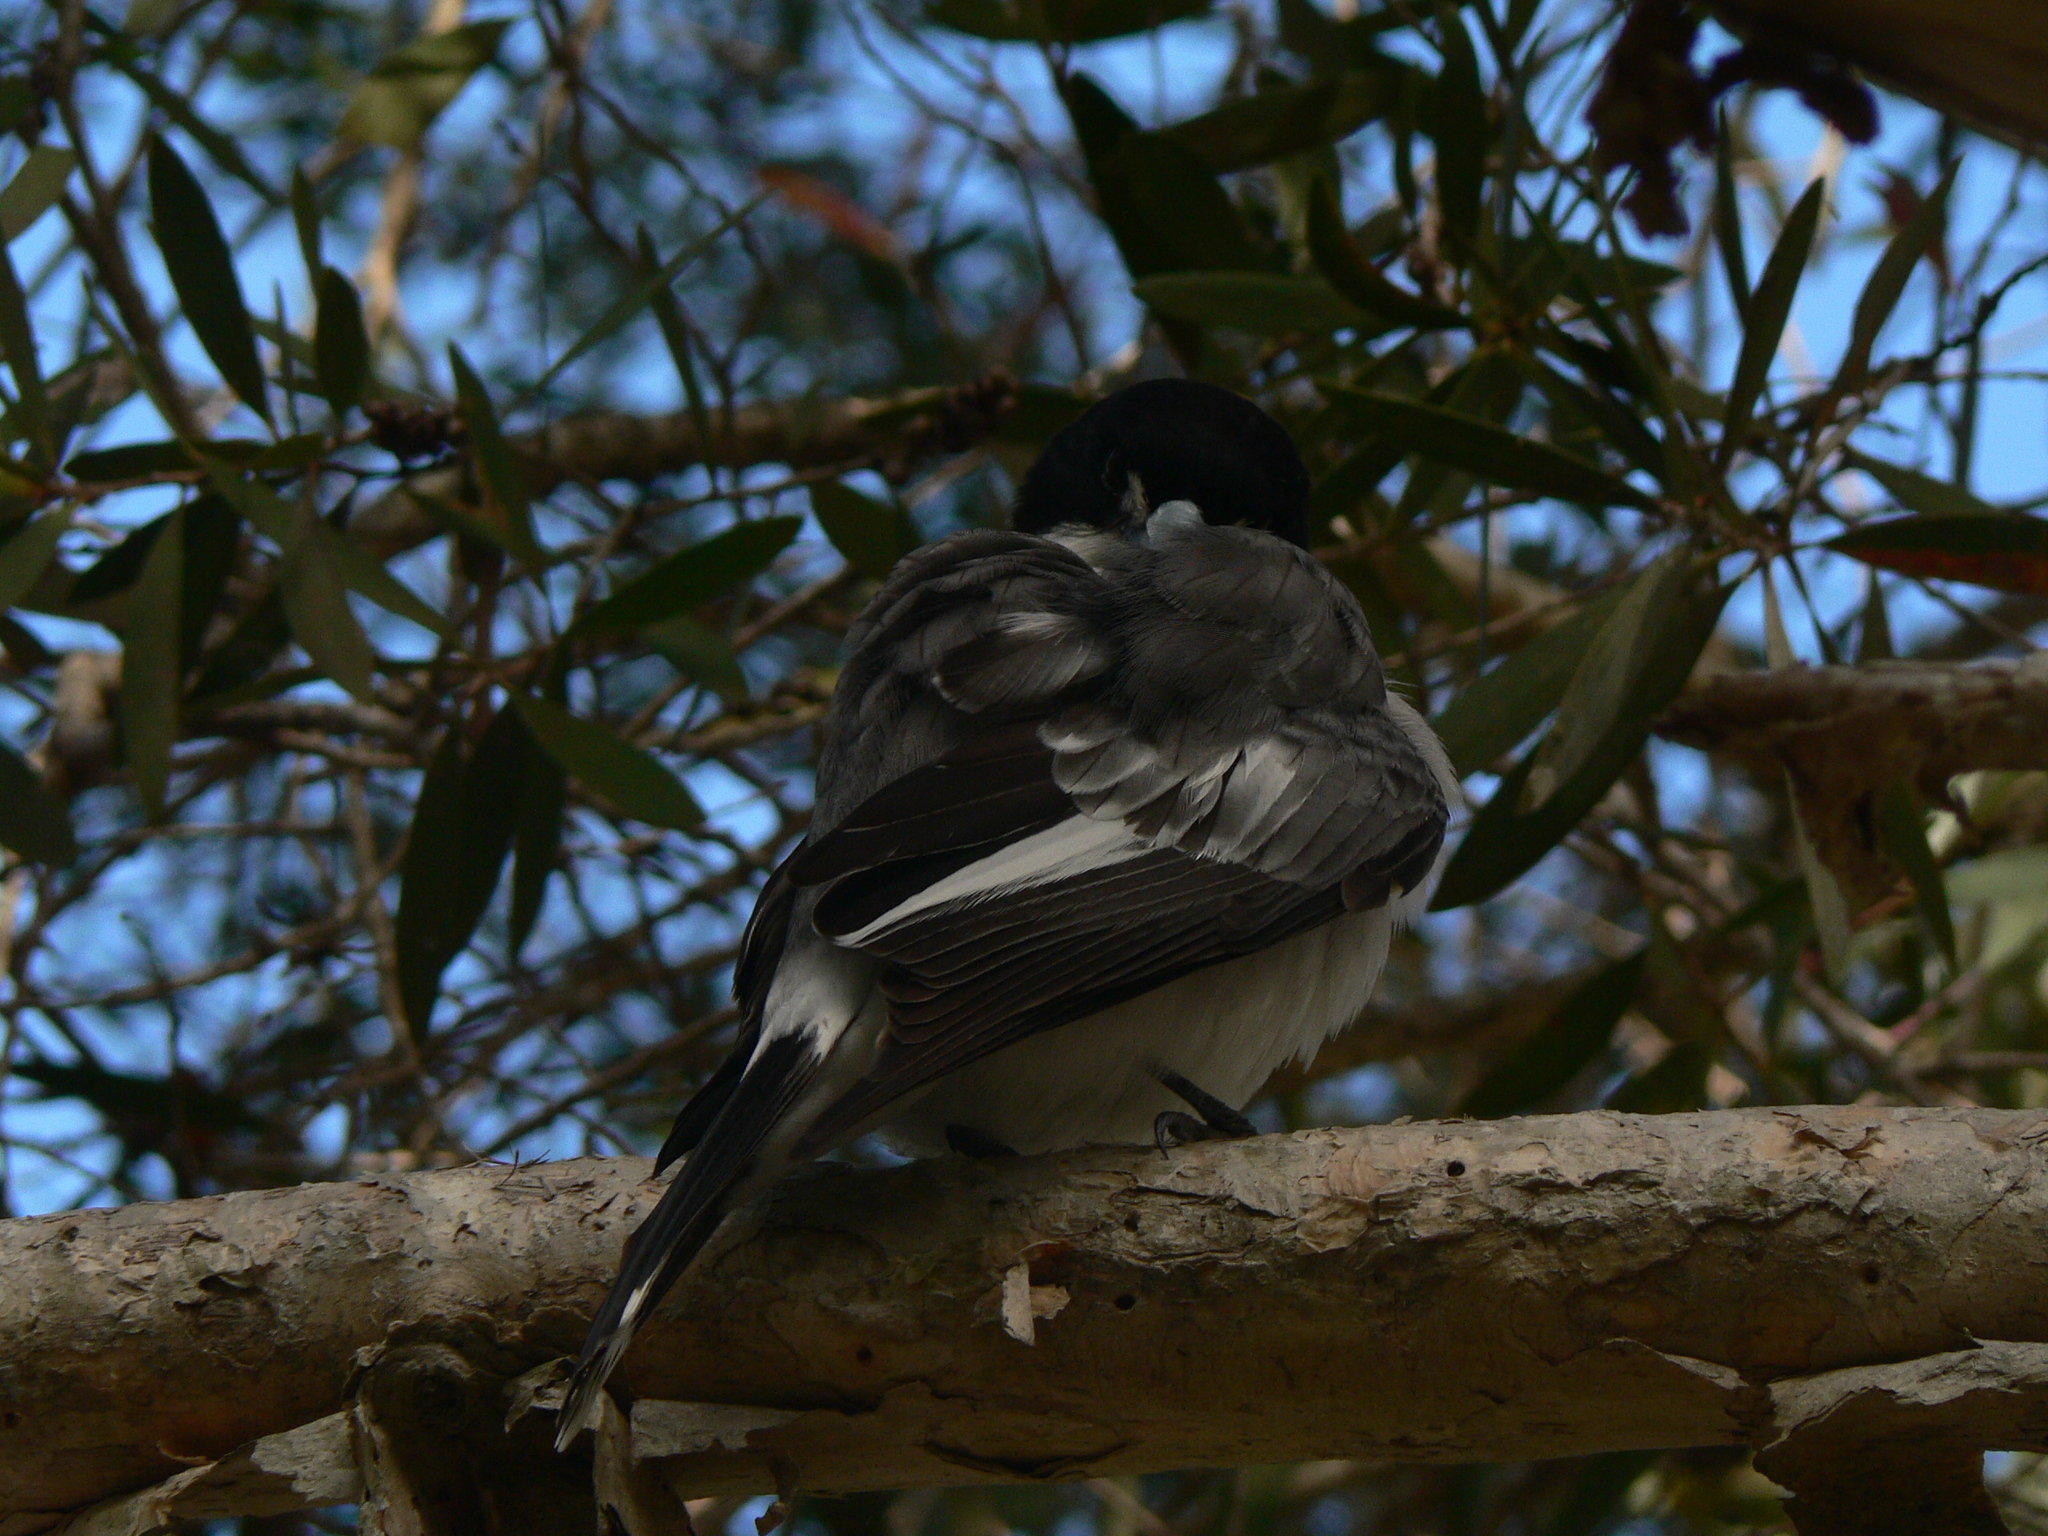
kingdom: Animalia
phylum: Chordata
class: Aves
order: Passeriformes
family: Cracticidae
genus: Cracticus
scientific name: Cracticus torquatus
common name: Grey butcherbird
